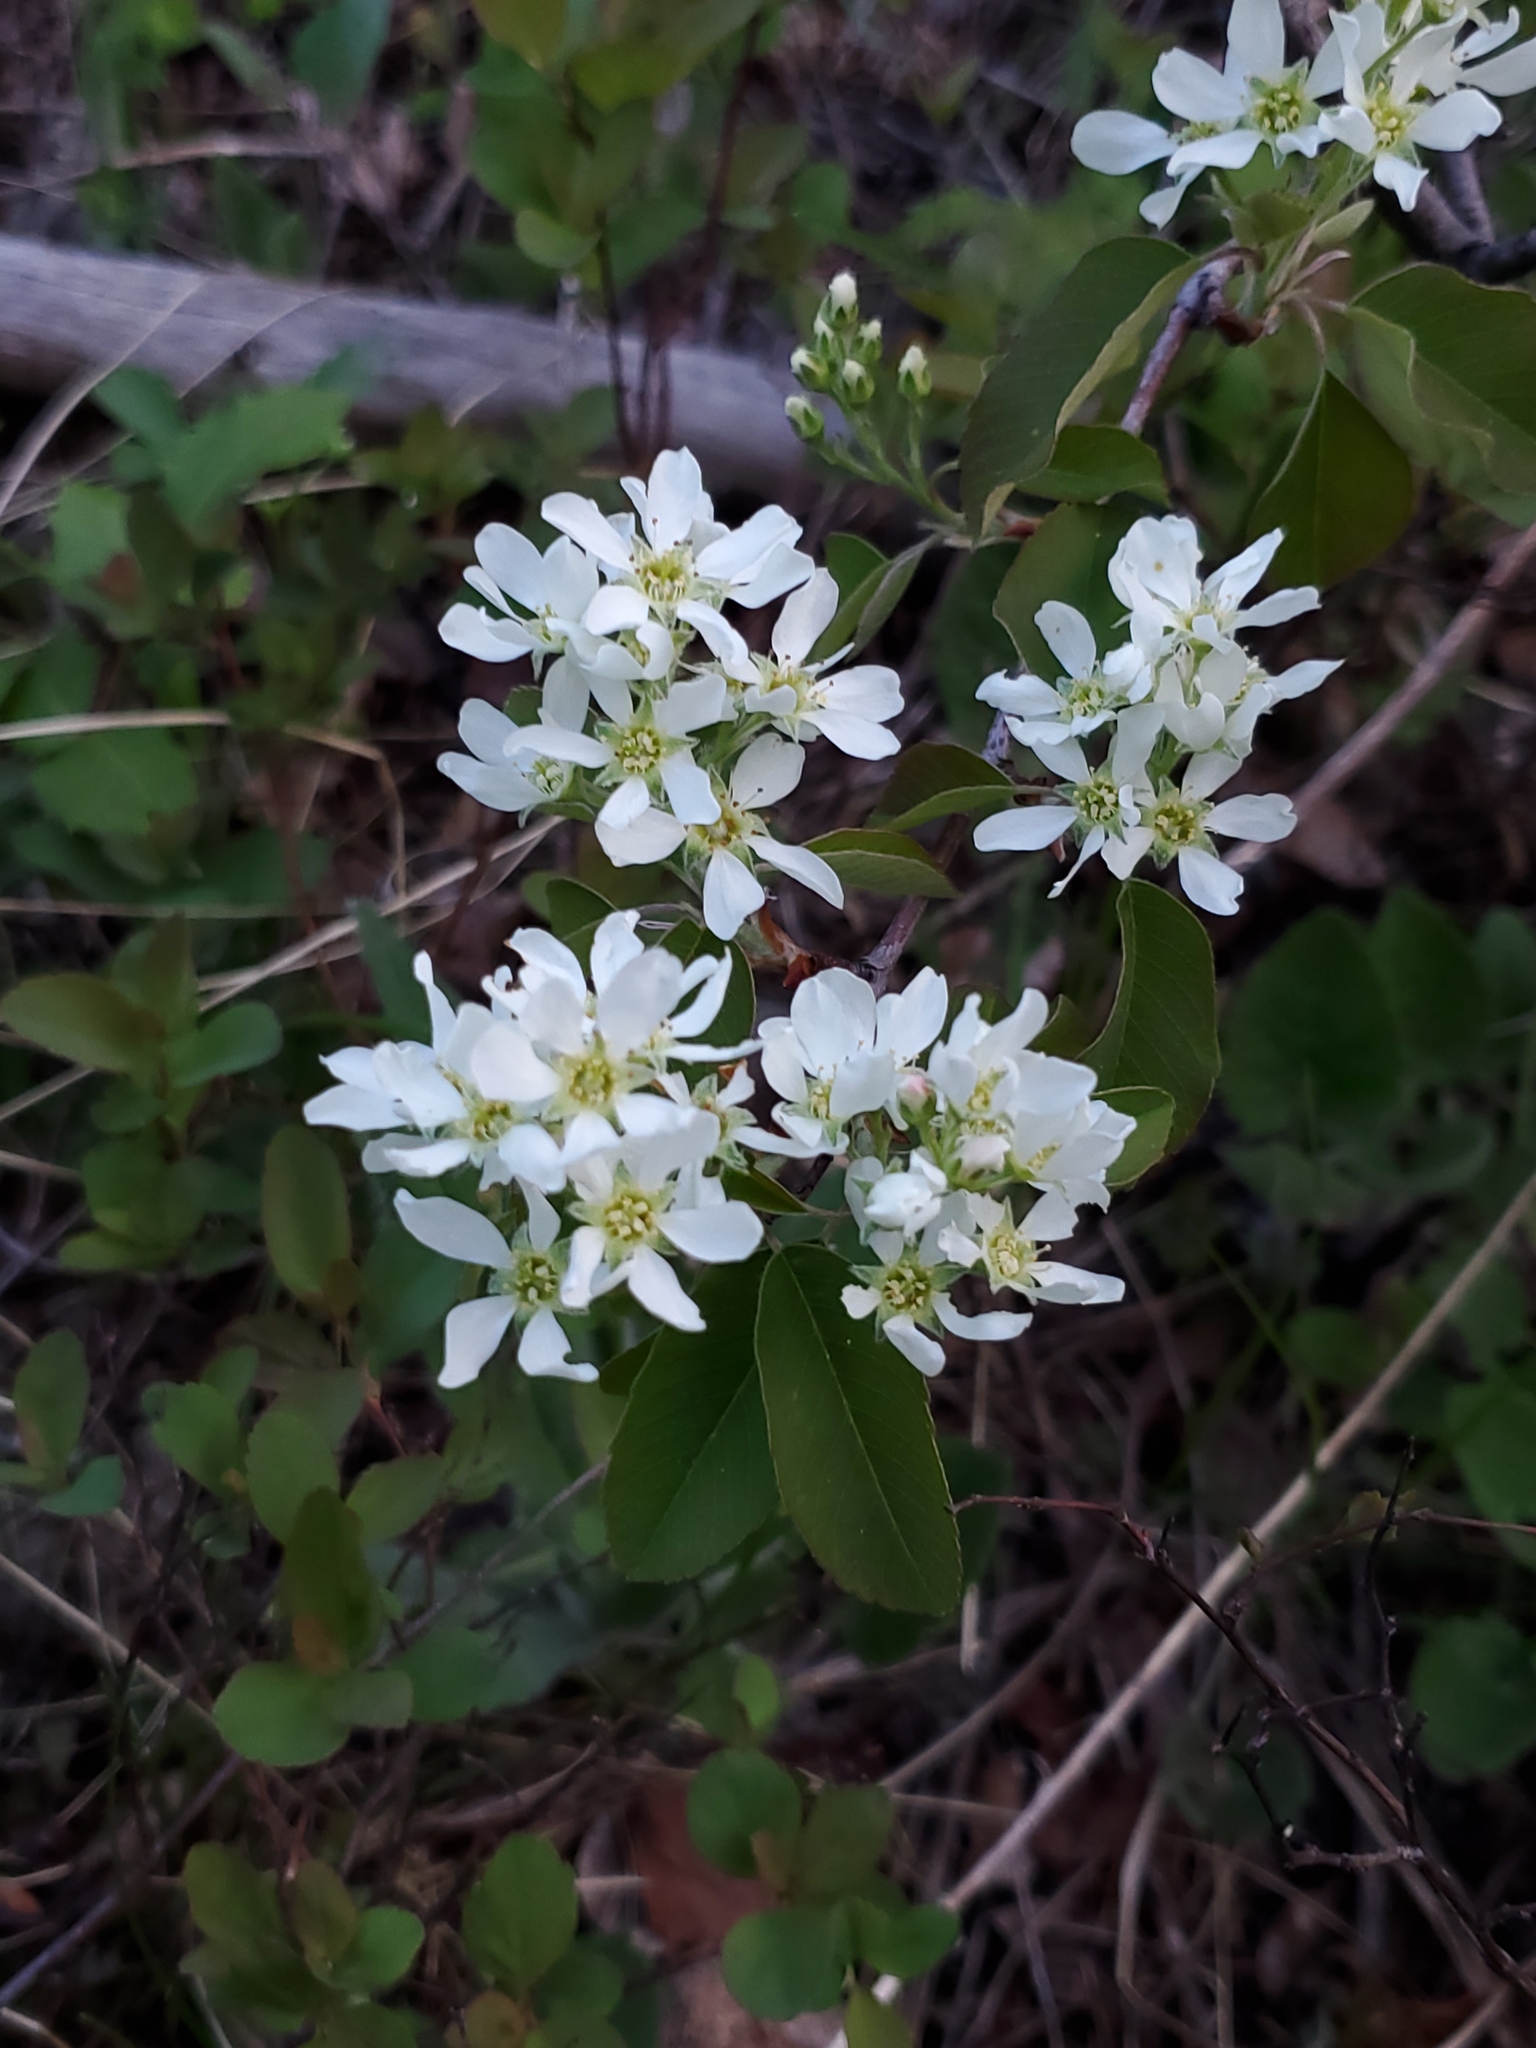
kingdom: Plantae
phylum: Tracheophyta
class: Magnoliopsida
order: Rosales
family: Rosaceae
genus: Amelanchier
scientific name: Amelanchier alnifolia
